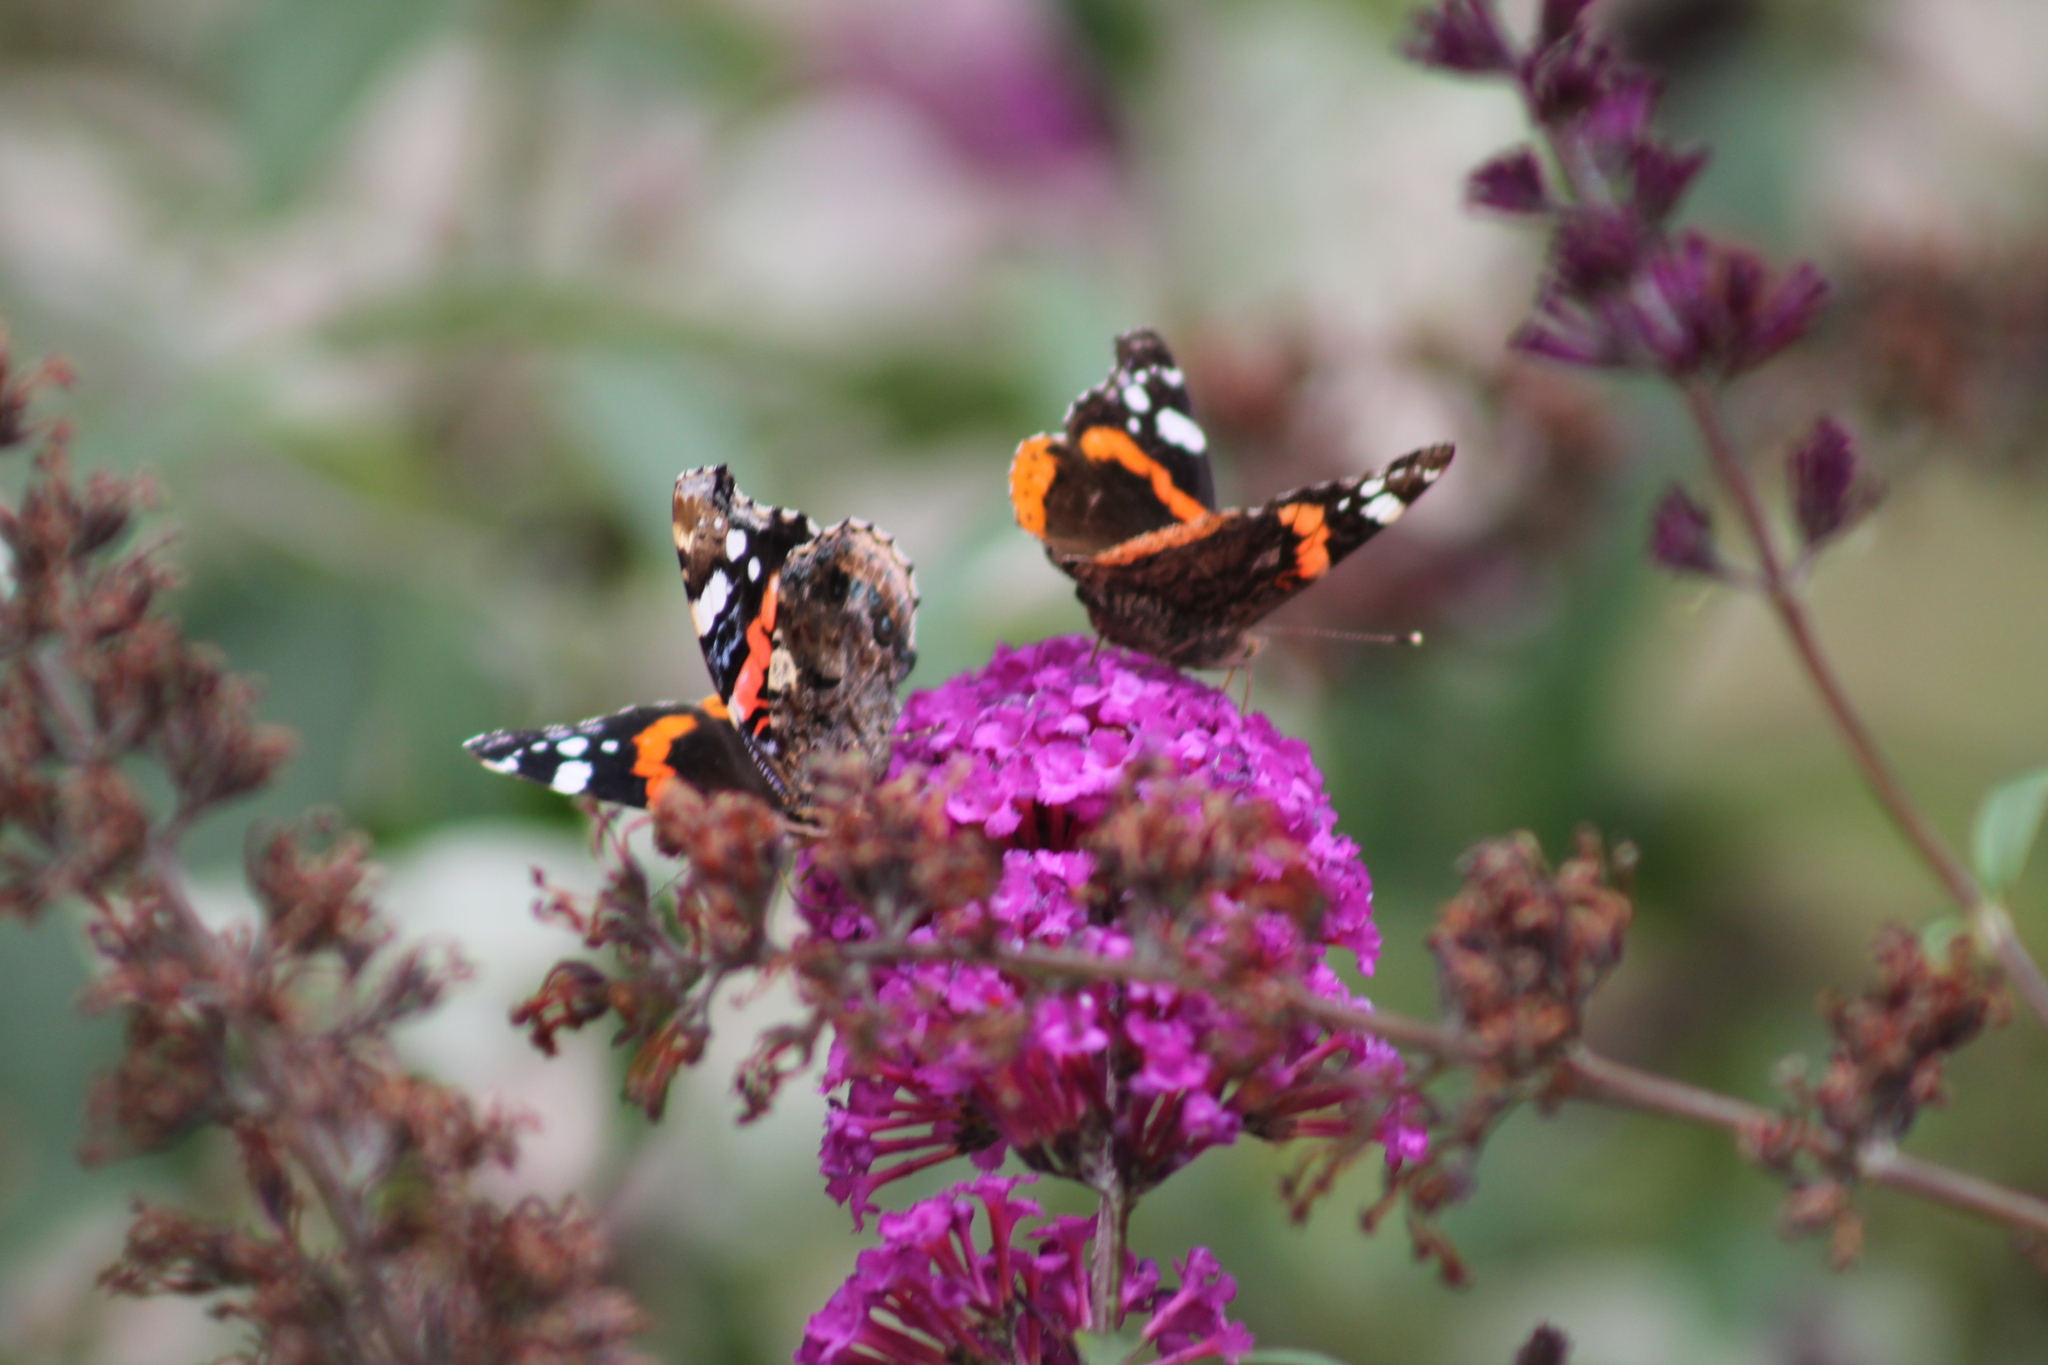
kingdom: Animalia
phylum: Arthropoda
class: Insecta
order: Lepidoptera
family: Nymphalidae
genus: Vanessa
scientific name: Vanessa atalanta
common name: Red admiral
